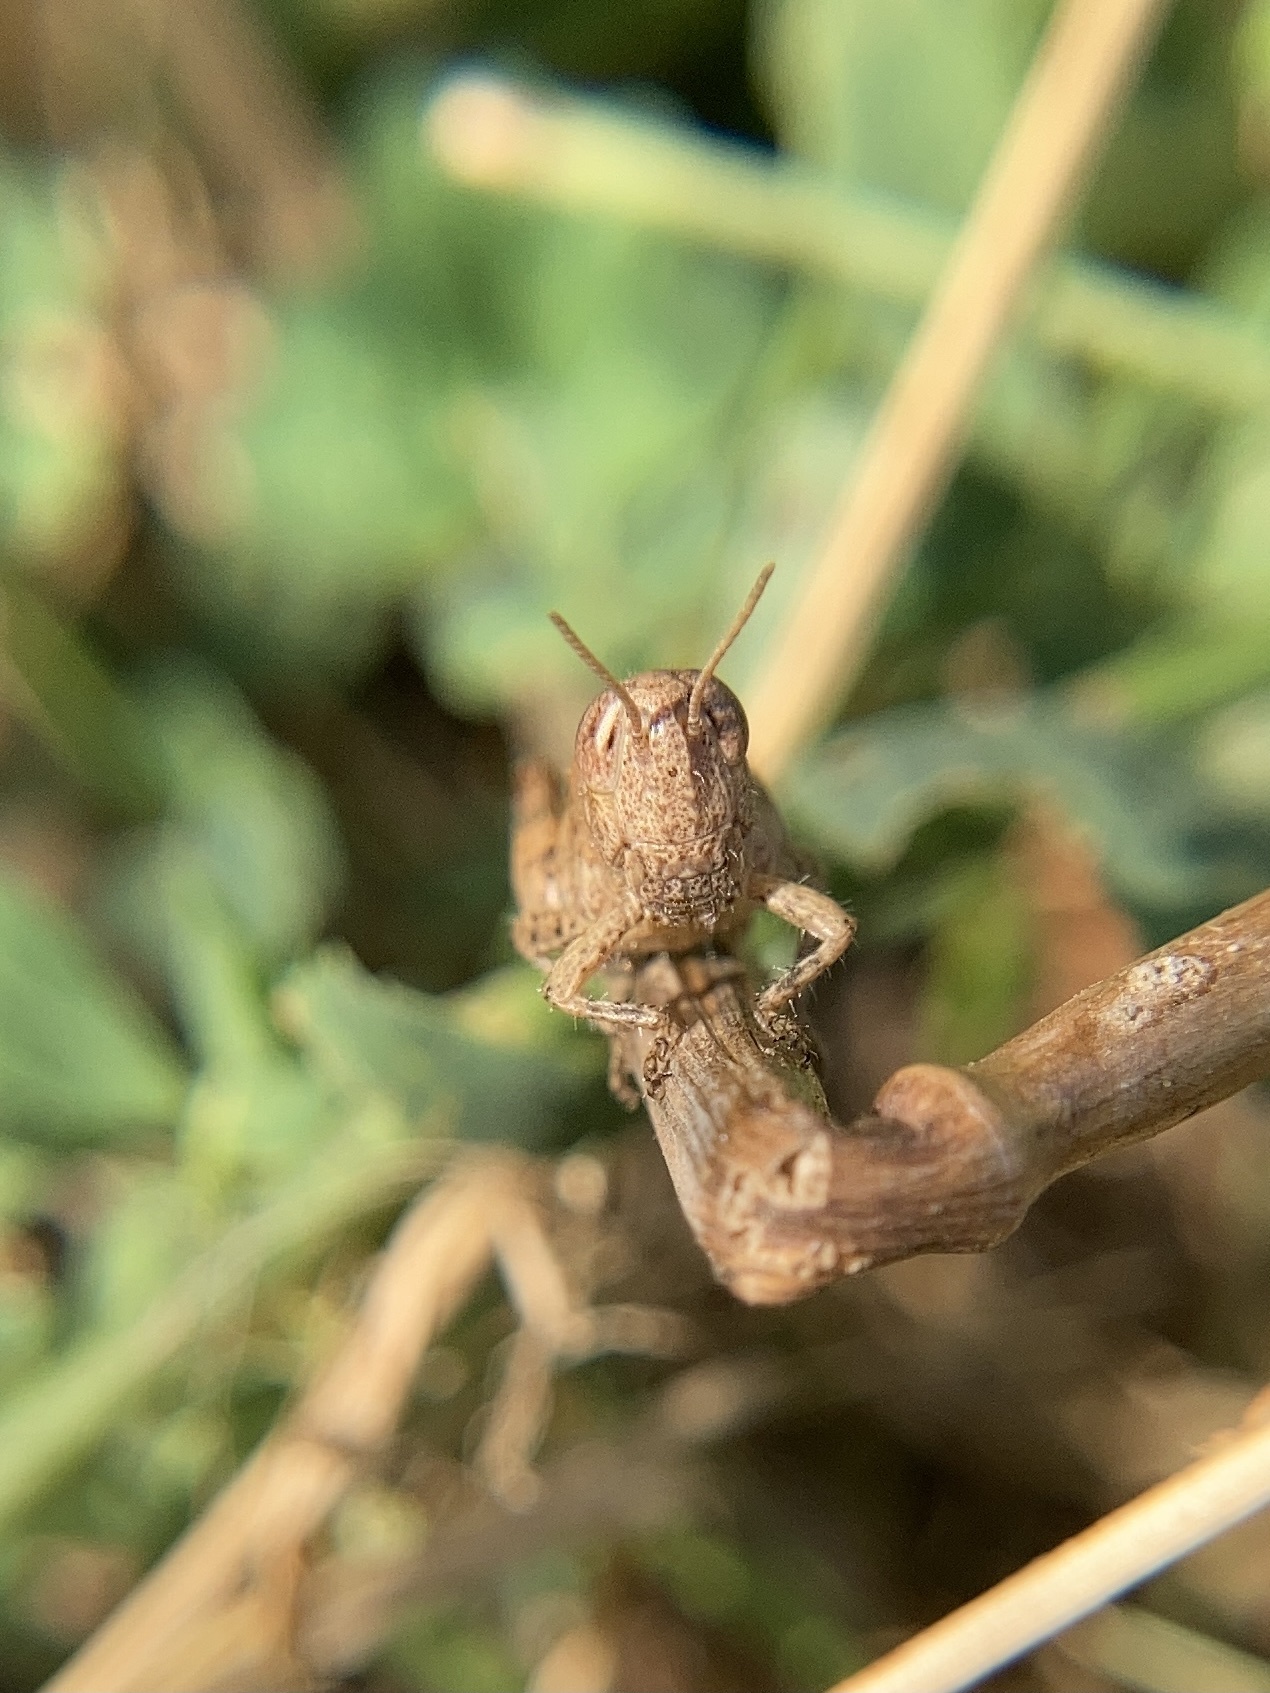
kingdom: Animalia
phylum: Arthropoda
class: Insecta
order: Orthoptera
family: Acrididae
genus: Pezotettix
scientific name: Pezotettix giornae
